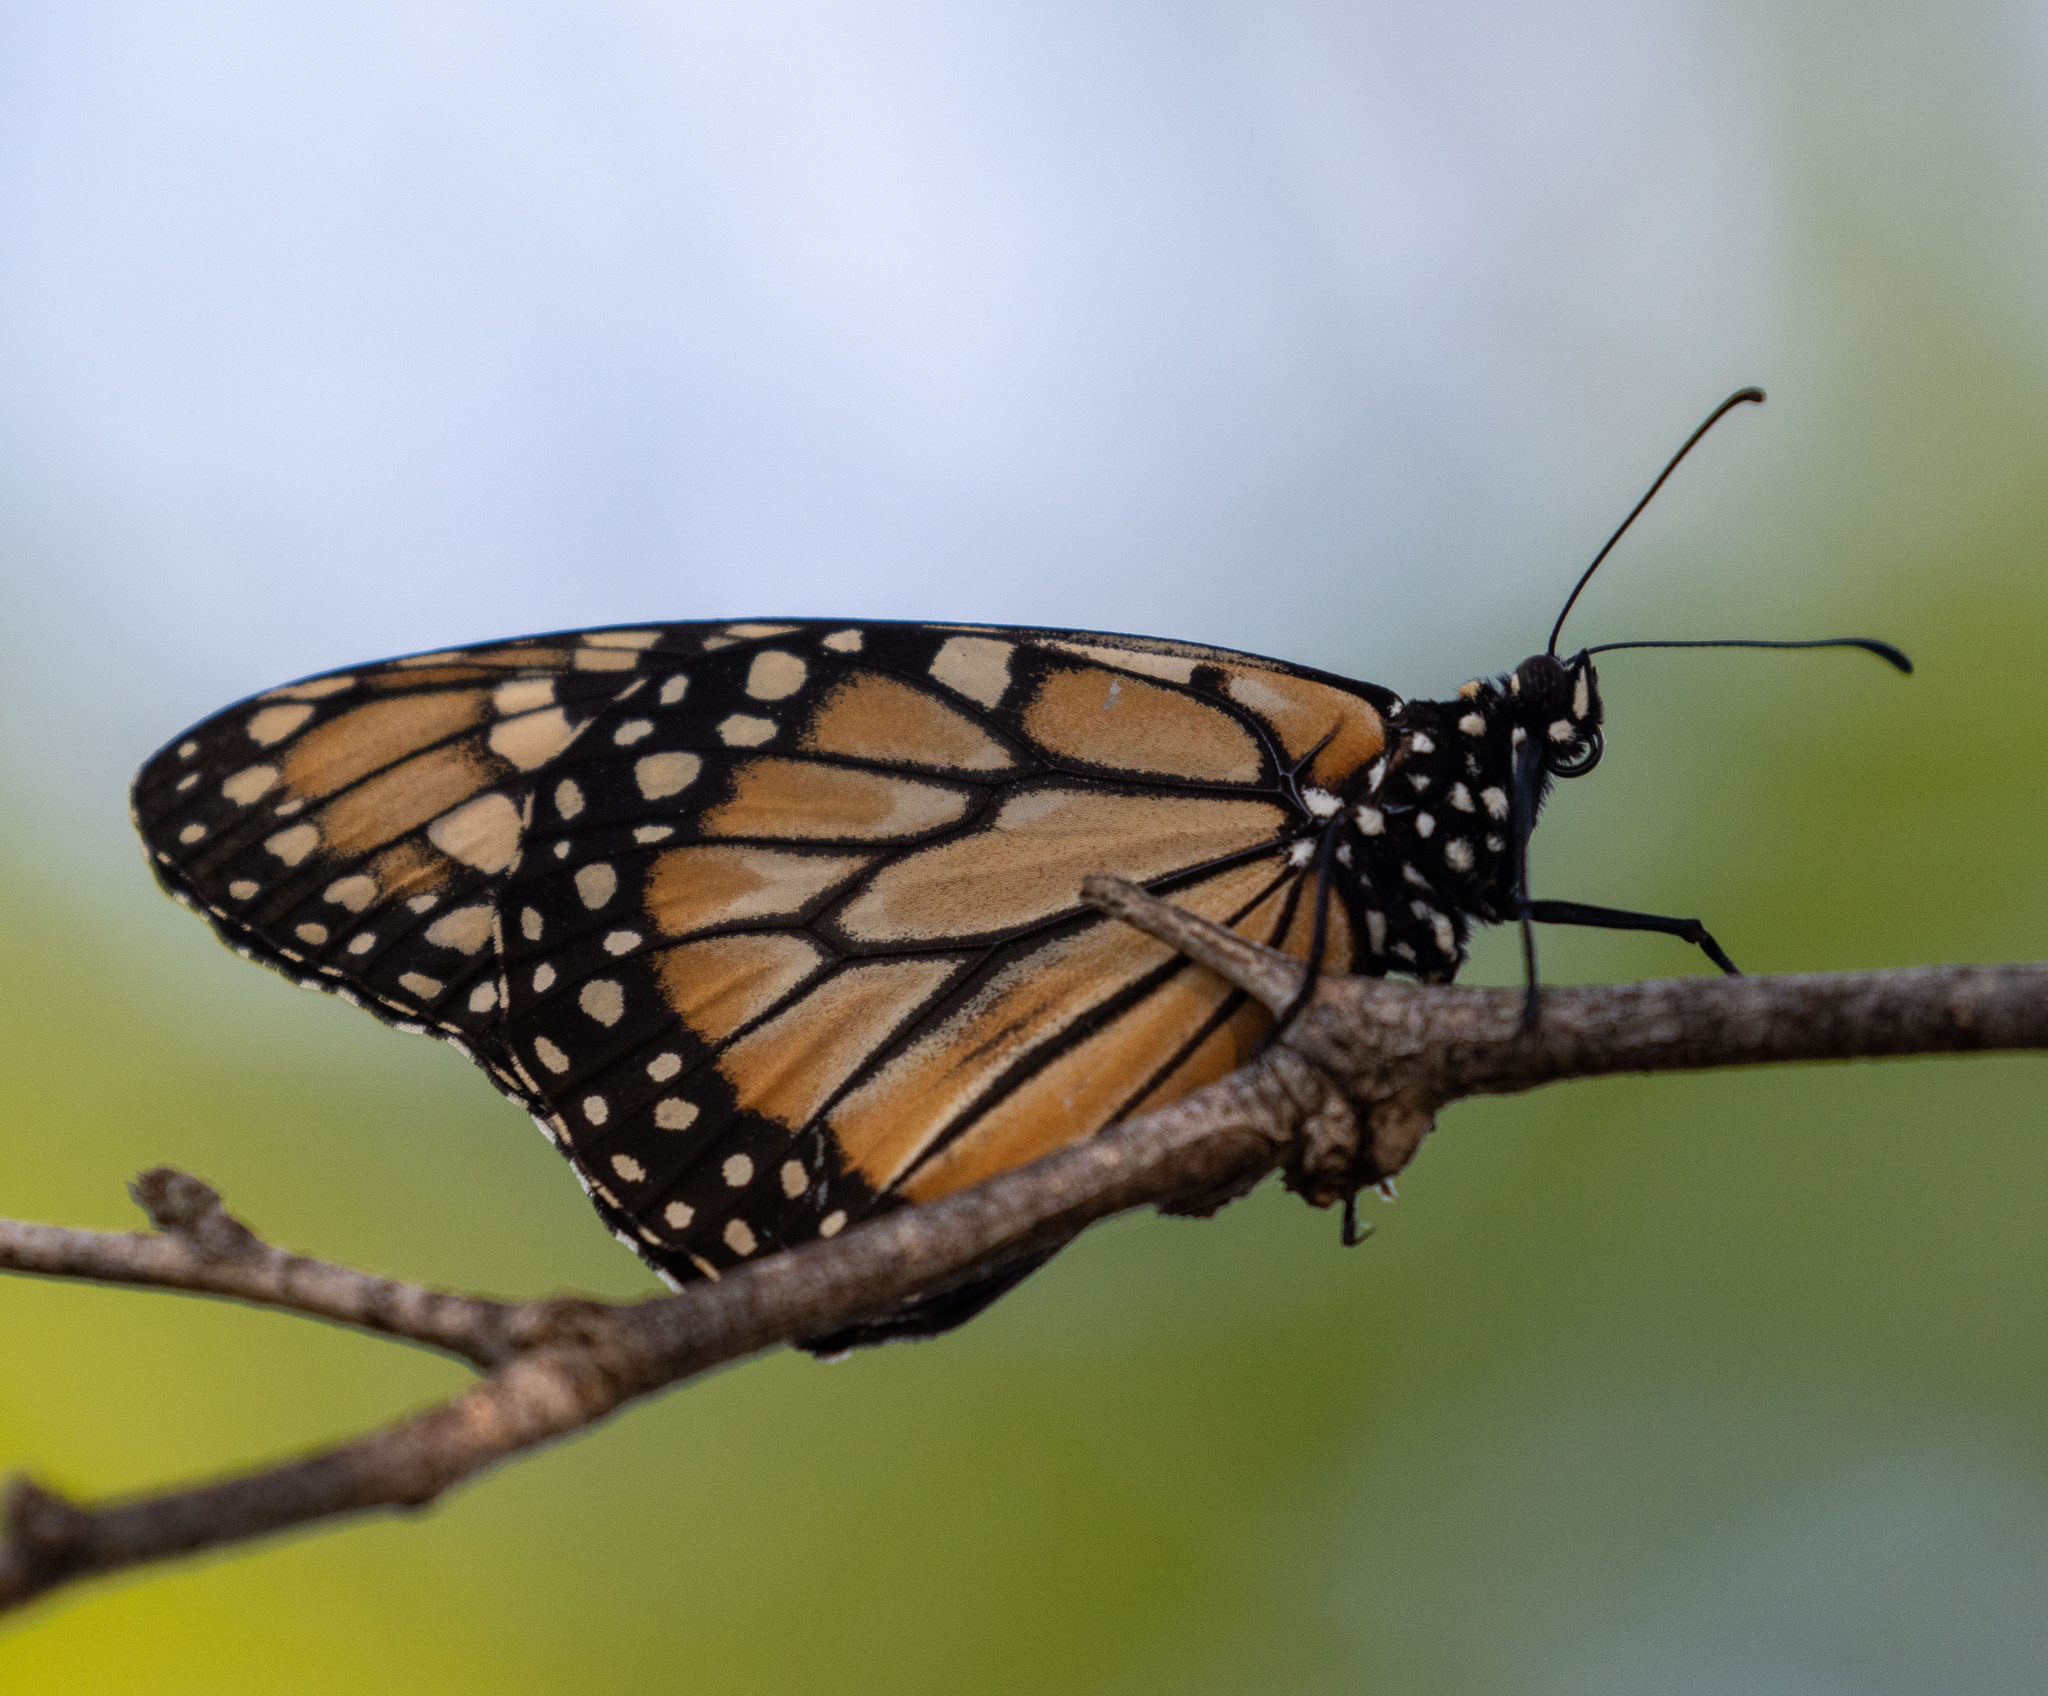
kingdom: Animalia
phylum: Arthropoda
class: Insecta
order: Lepidoptera
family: Nymphalidae
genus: Danaus
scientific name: Danaus erippus
